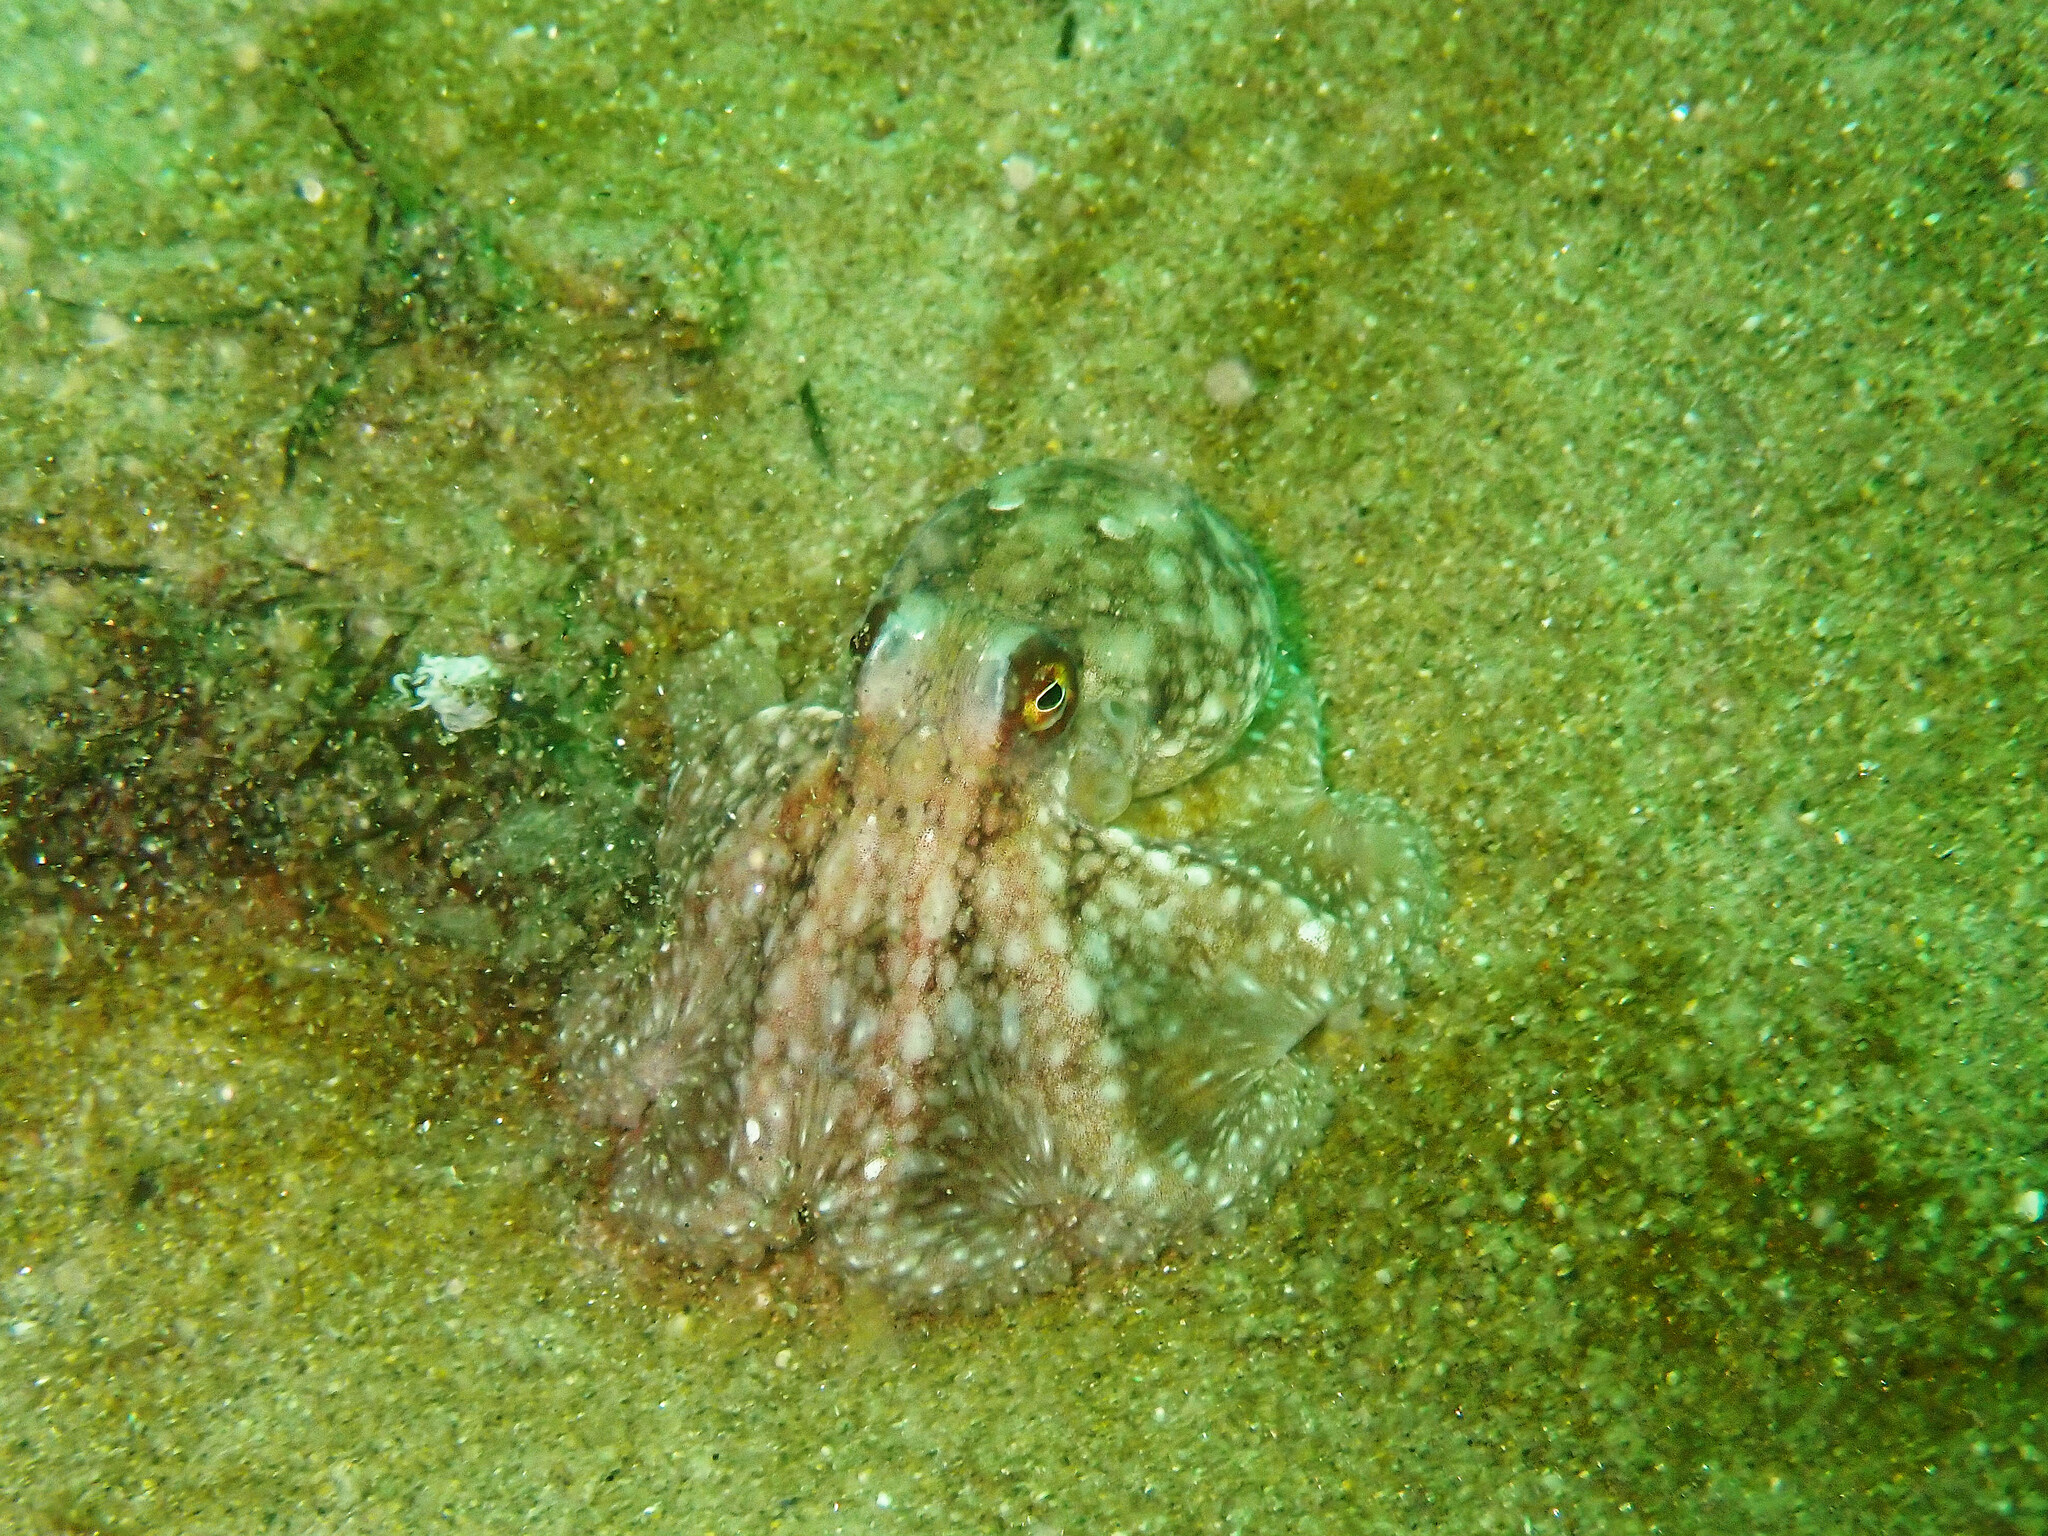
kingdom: Animalia
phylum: Mollusca
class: Cephalopoda
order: Octopoda
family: Octopodidae
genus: Octopus
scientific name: Octopus rubescens
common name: East pacific red octopus
